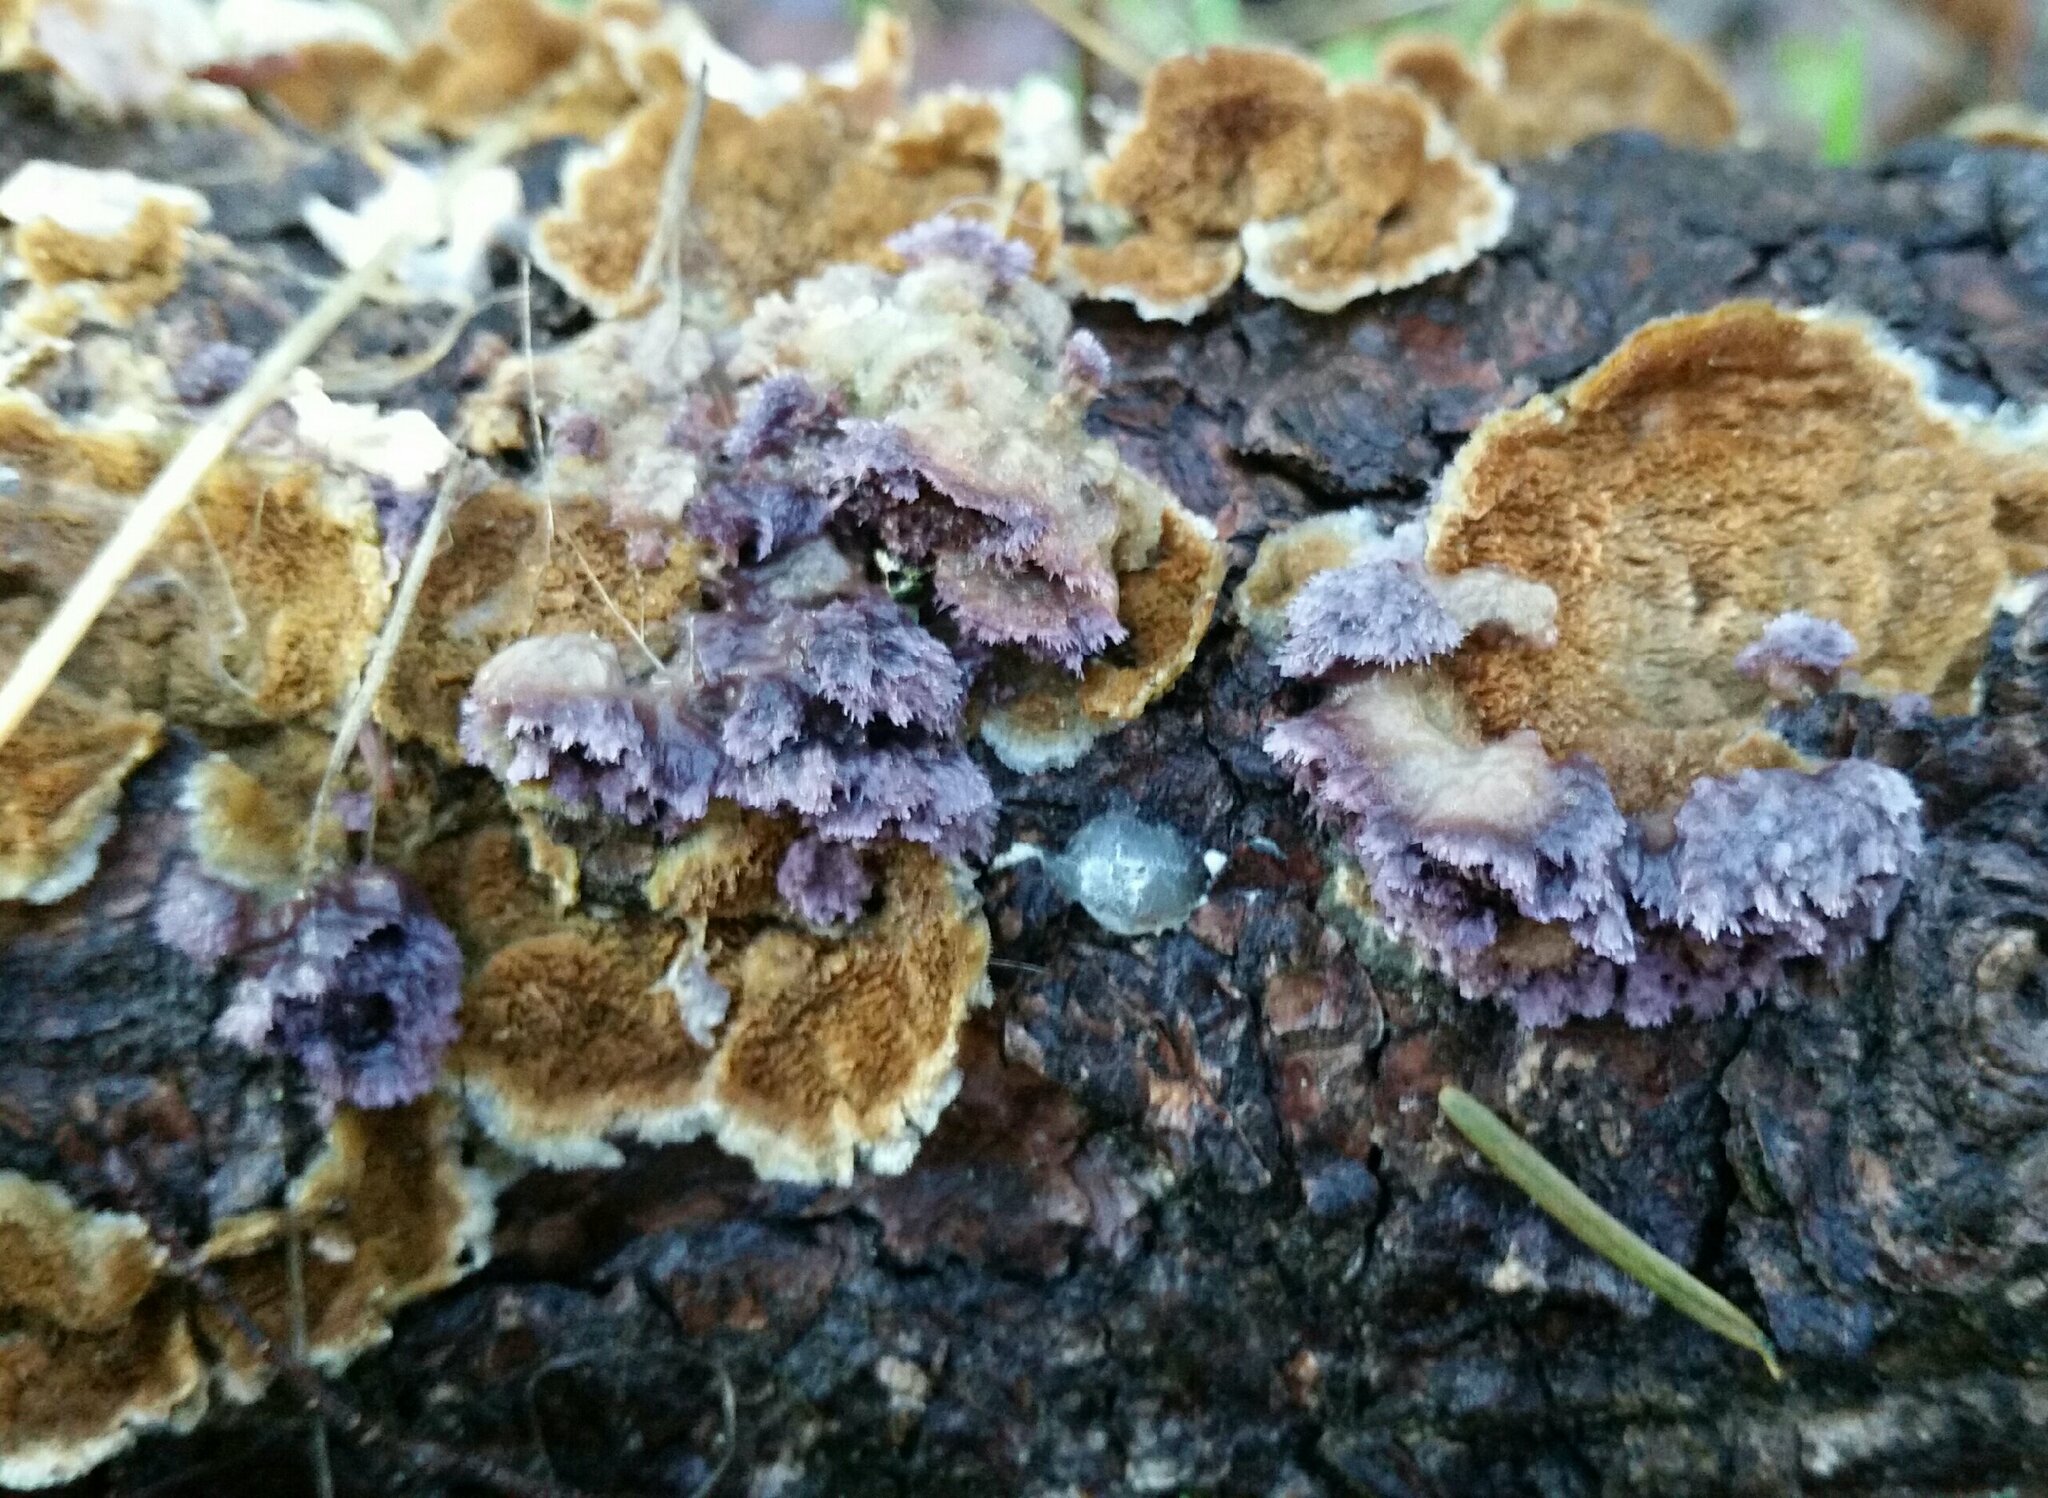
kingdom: Fungi
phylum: Basidiomycota
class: Agaricomycetes
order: Hymenochaetales
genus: Trichaptum
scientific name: Trichaptum abietinum
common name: Purplepore bracket
